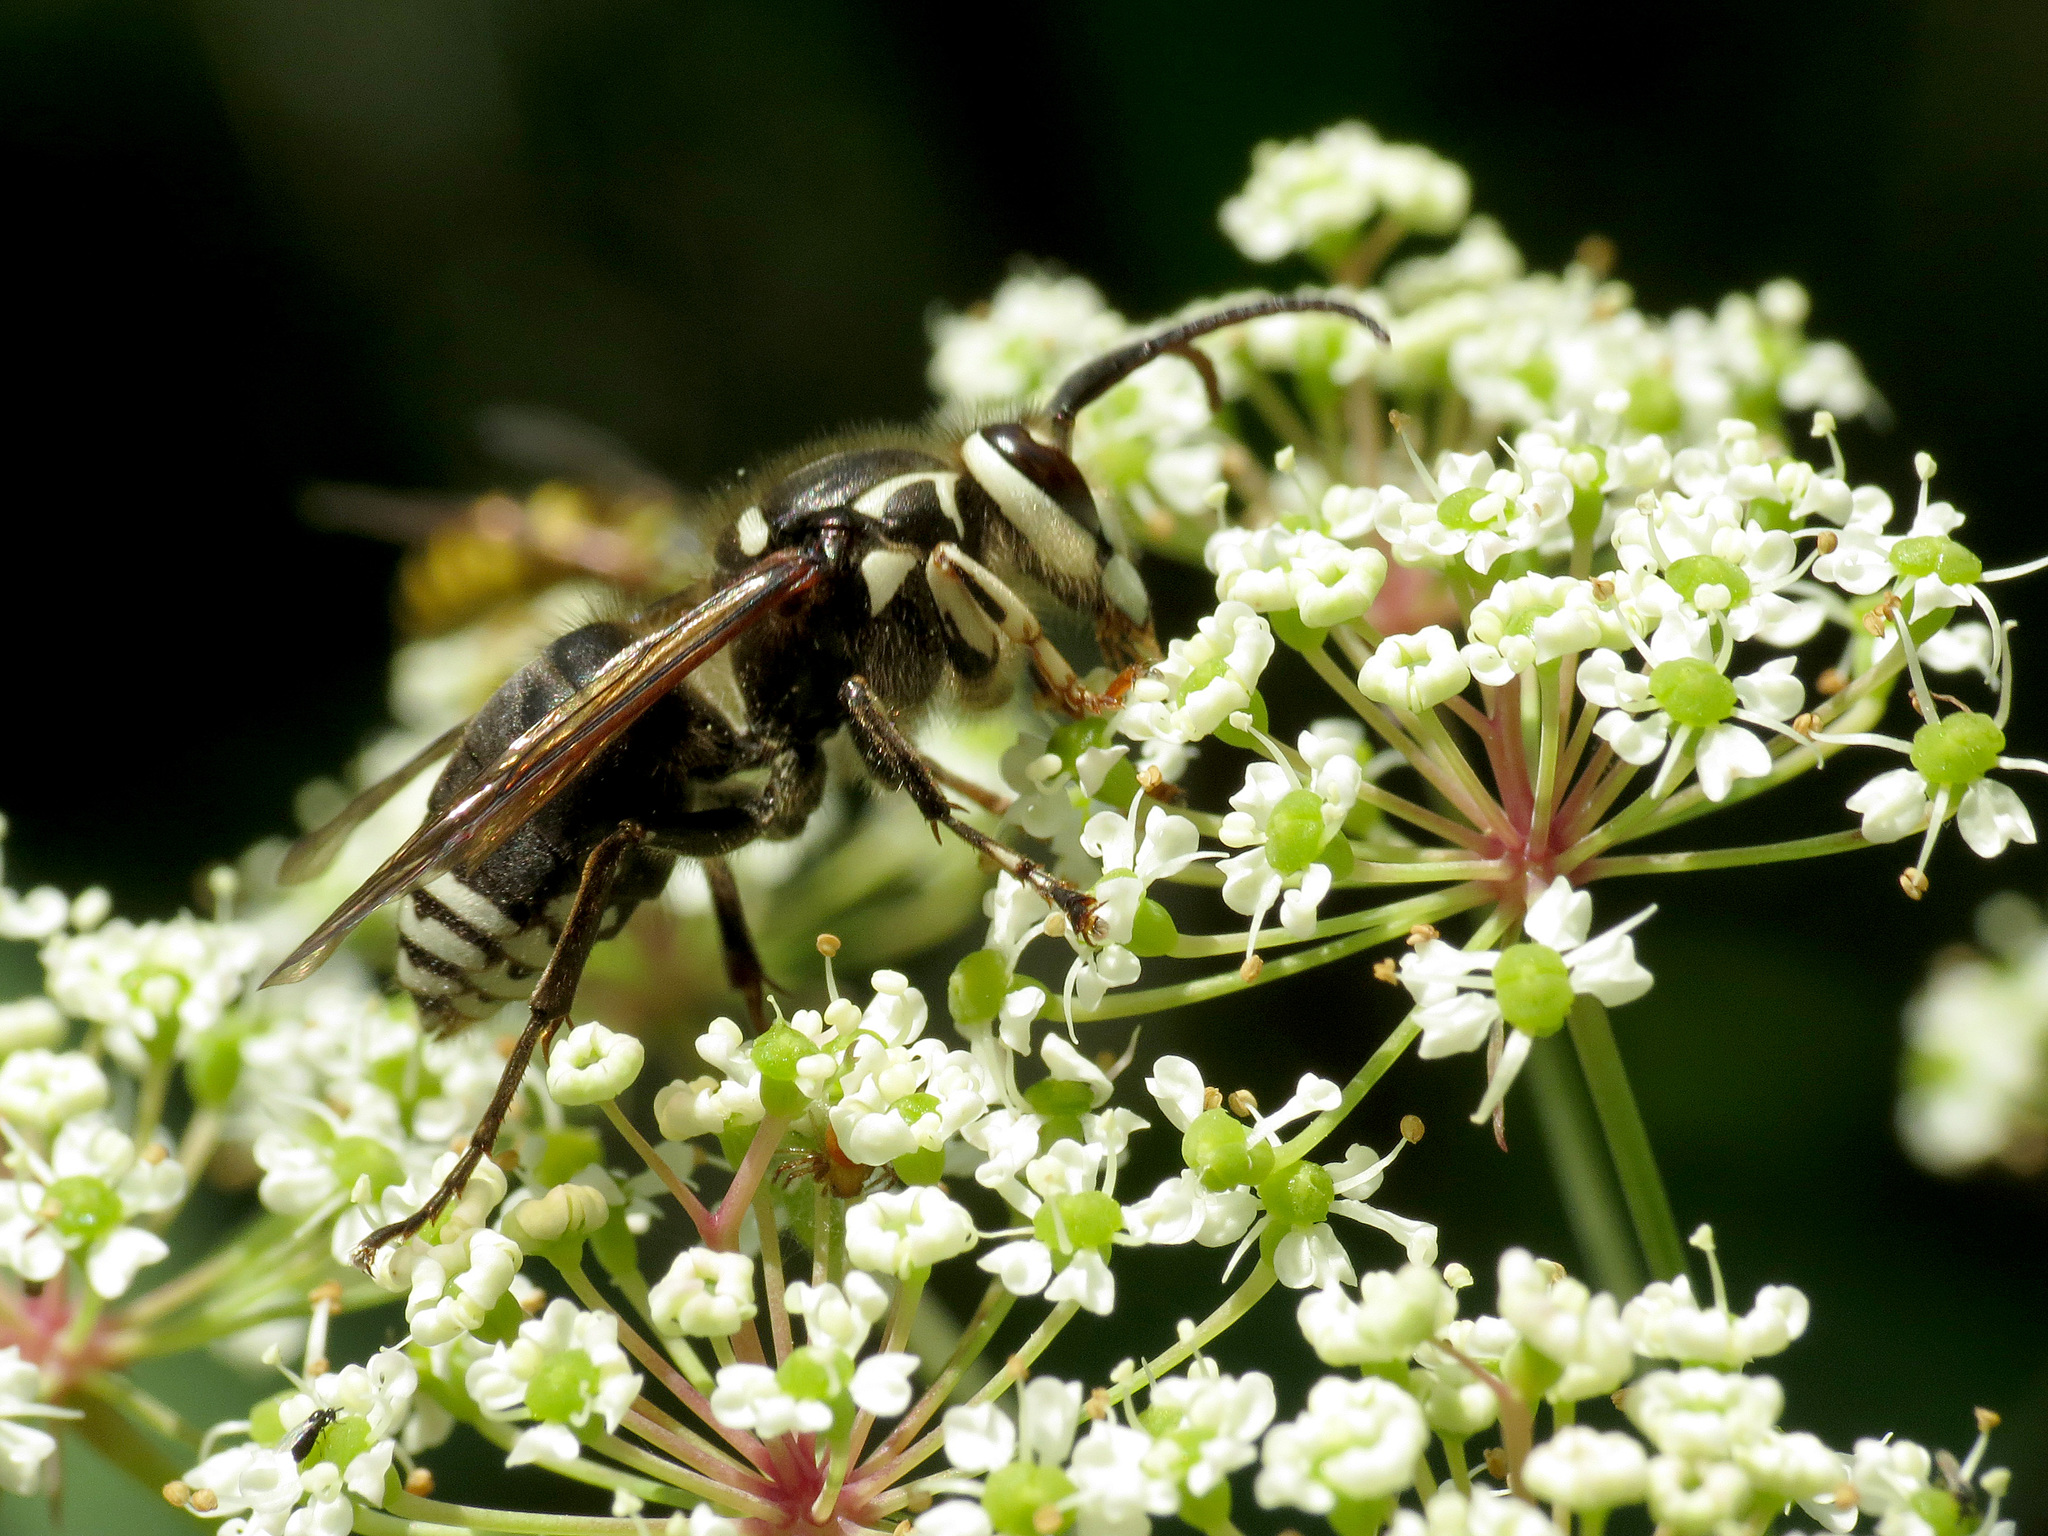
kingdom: Animalia
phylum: Arthropoda
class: Insecta
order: Hymenoptera
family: Vespidae
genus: Dolichovespula
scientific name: Dolichovespula maculata
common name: Bald-faced hornet
